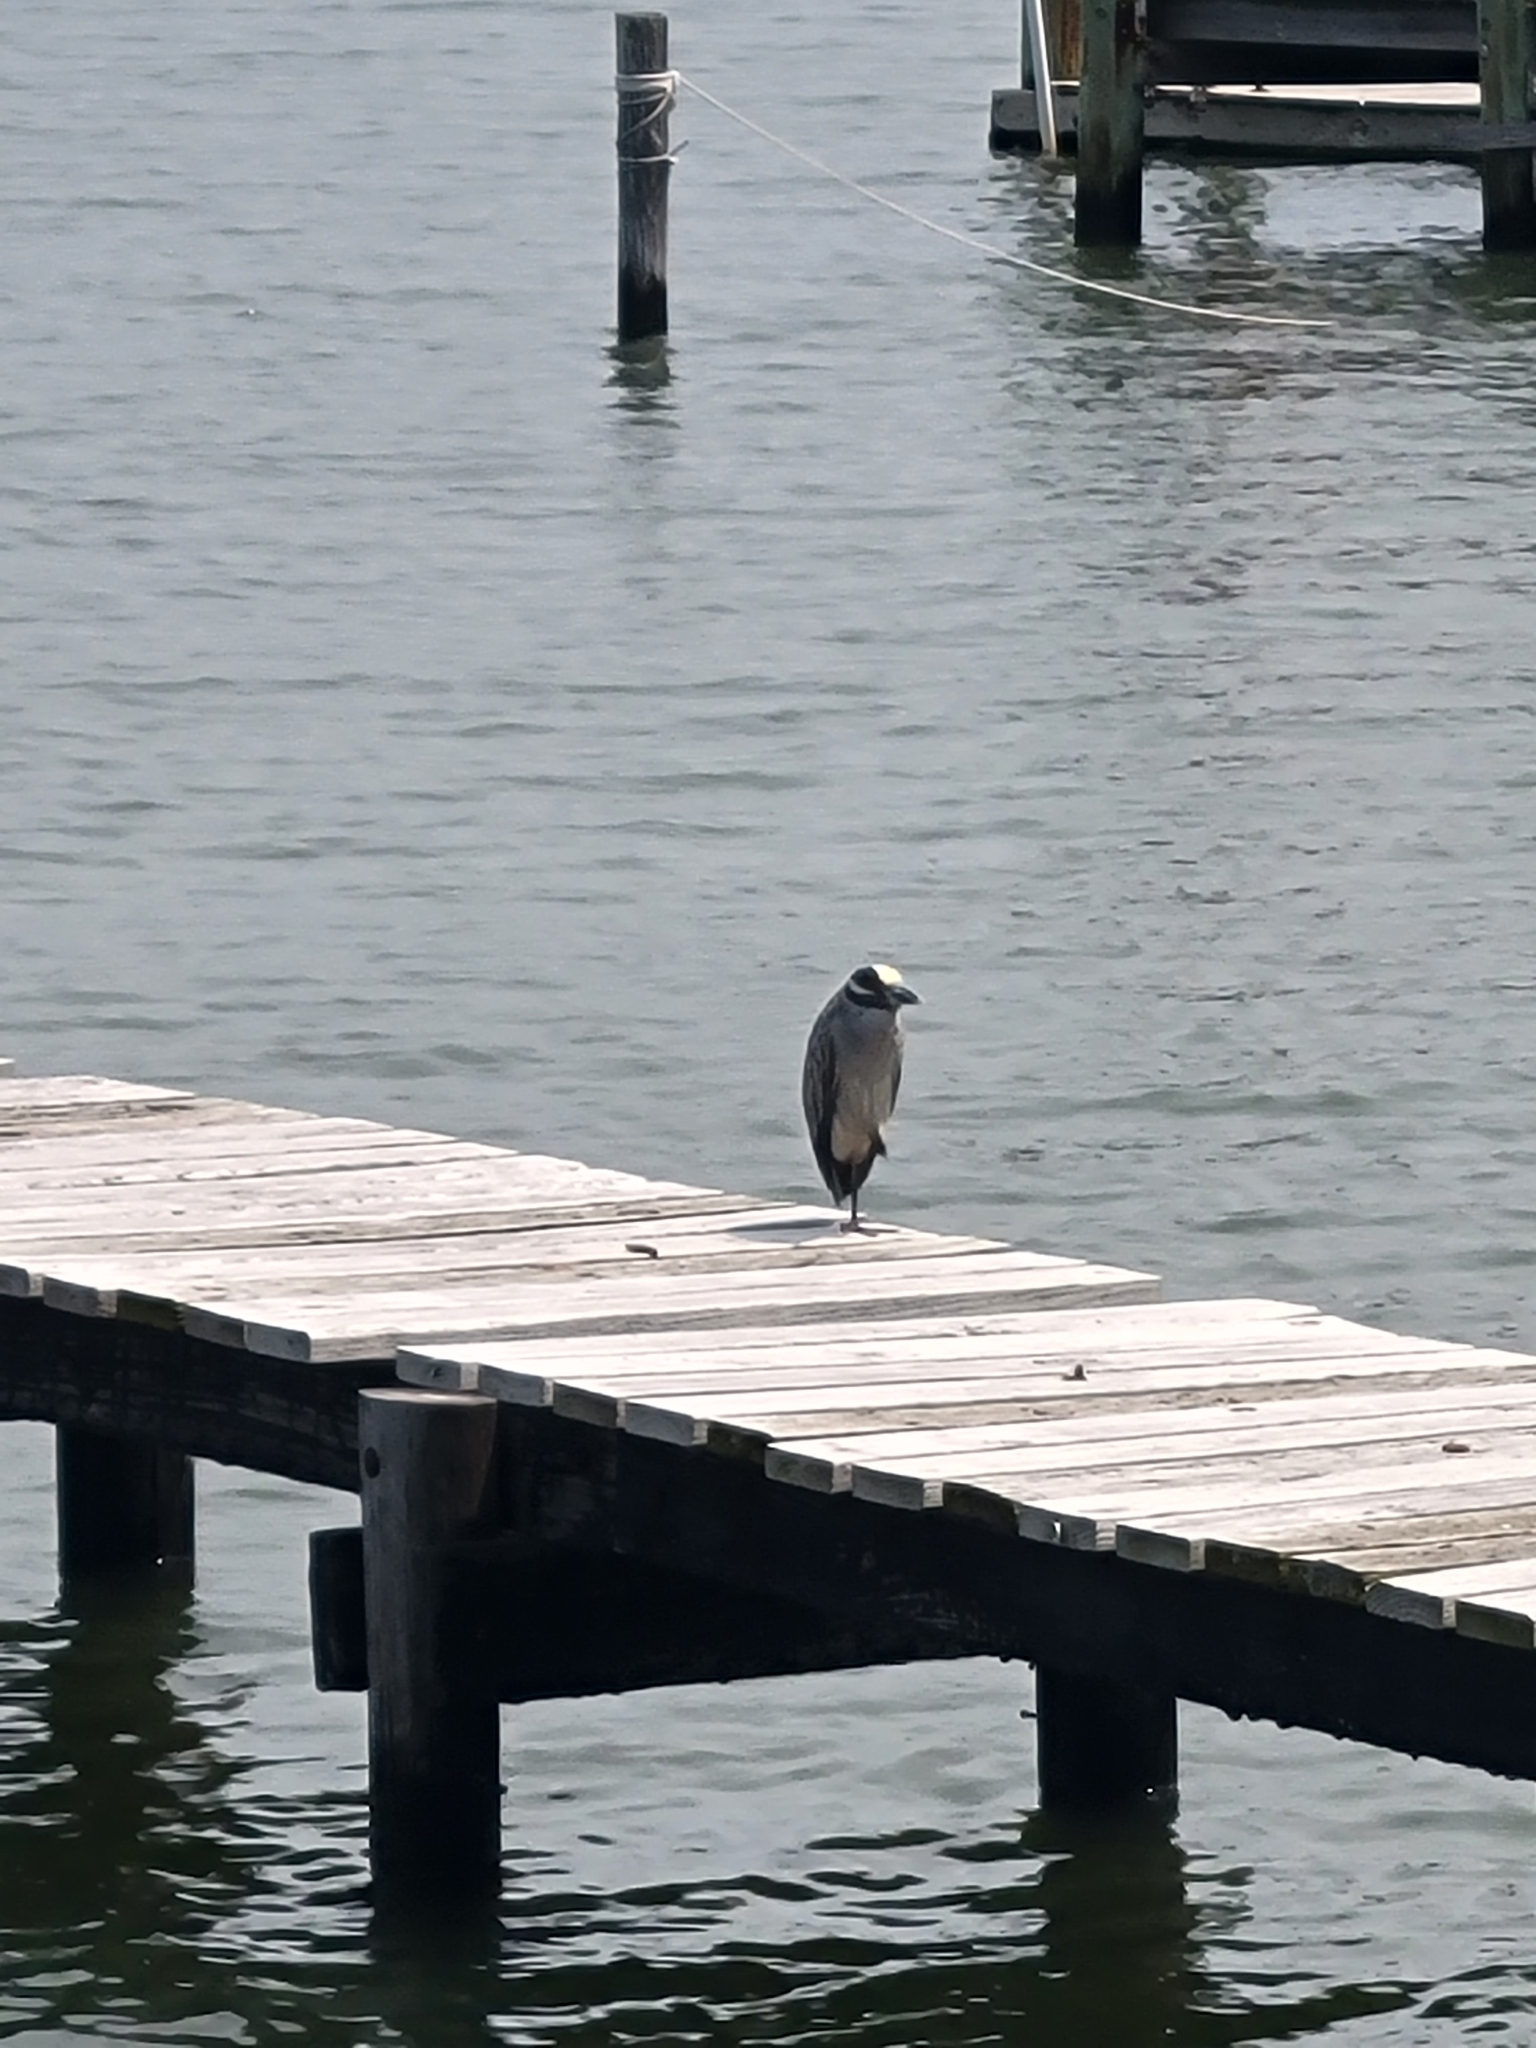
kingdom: Animalia
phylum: Chordata
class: Aves
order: Pelecaniformes
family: Ardeidae
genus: Nyctanassa
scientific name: Nyctanassa violacea
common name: Yellow-crowned night heron
